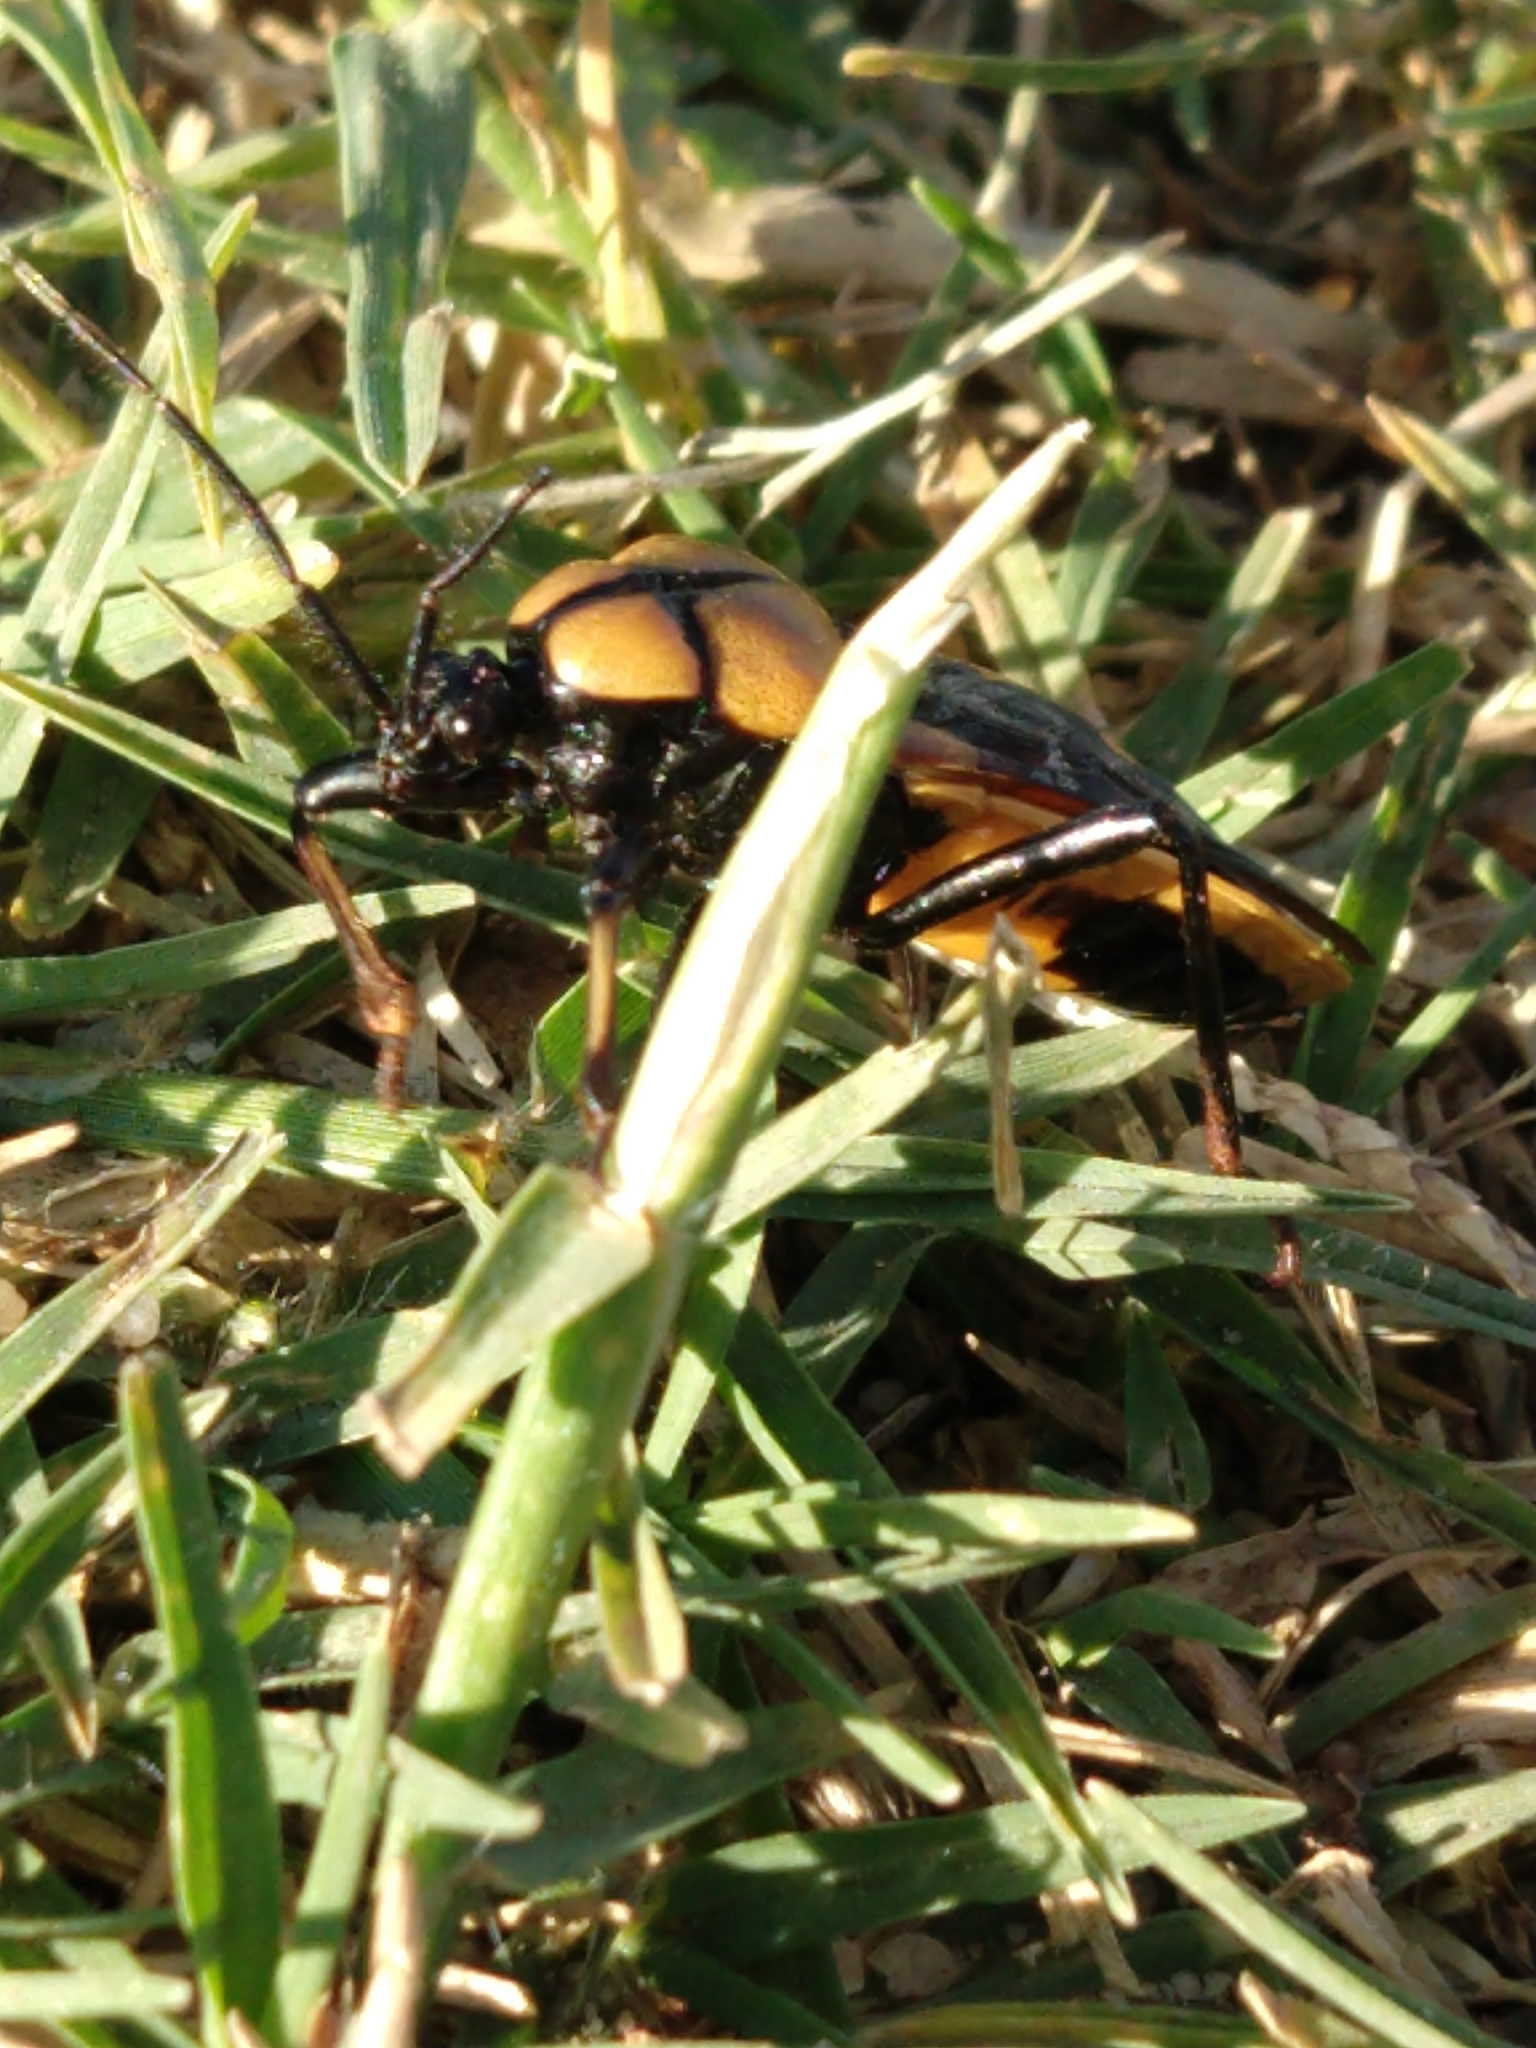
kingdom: Animalia
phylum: Arthropoda
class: Insecta
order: Hemiptera
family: Reduviidae
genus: Ectrichodia
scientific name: Ectrichodia crux
